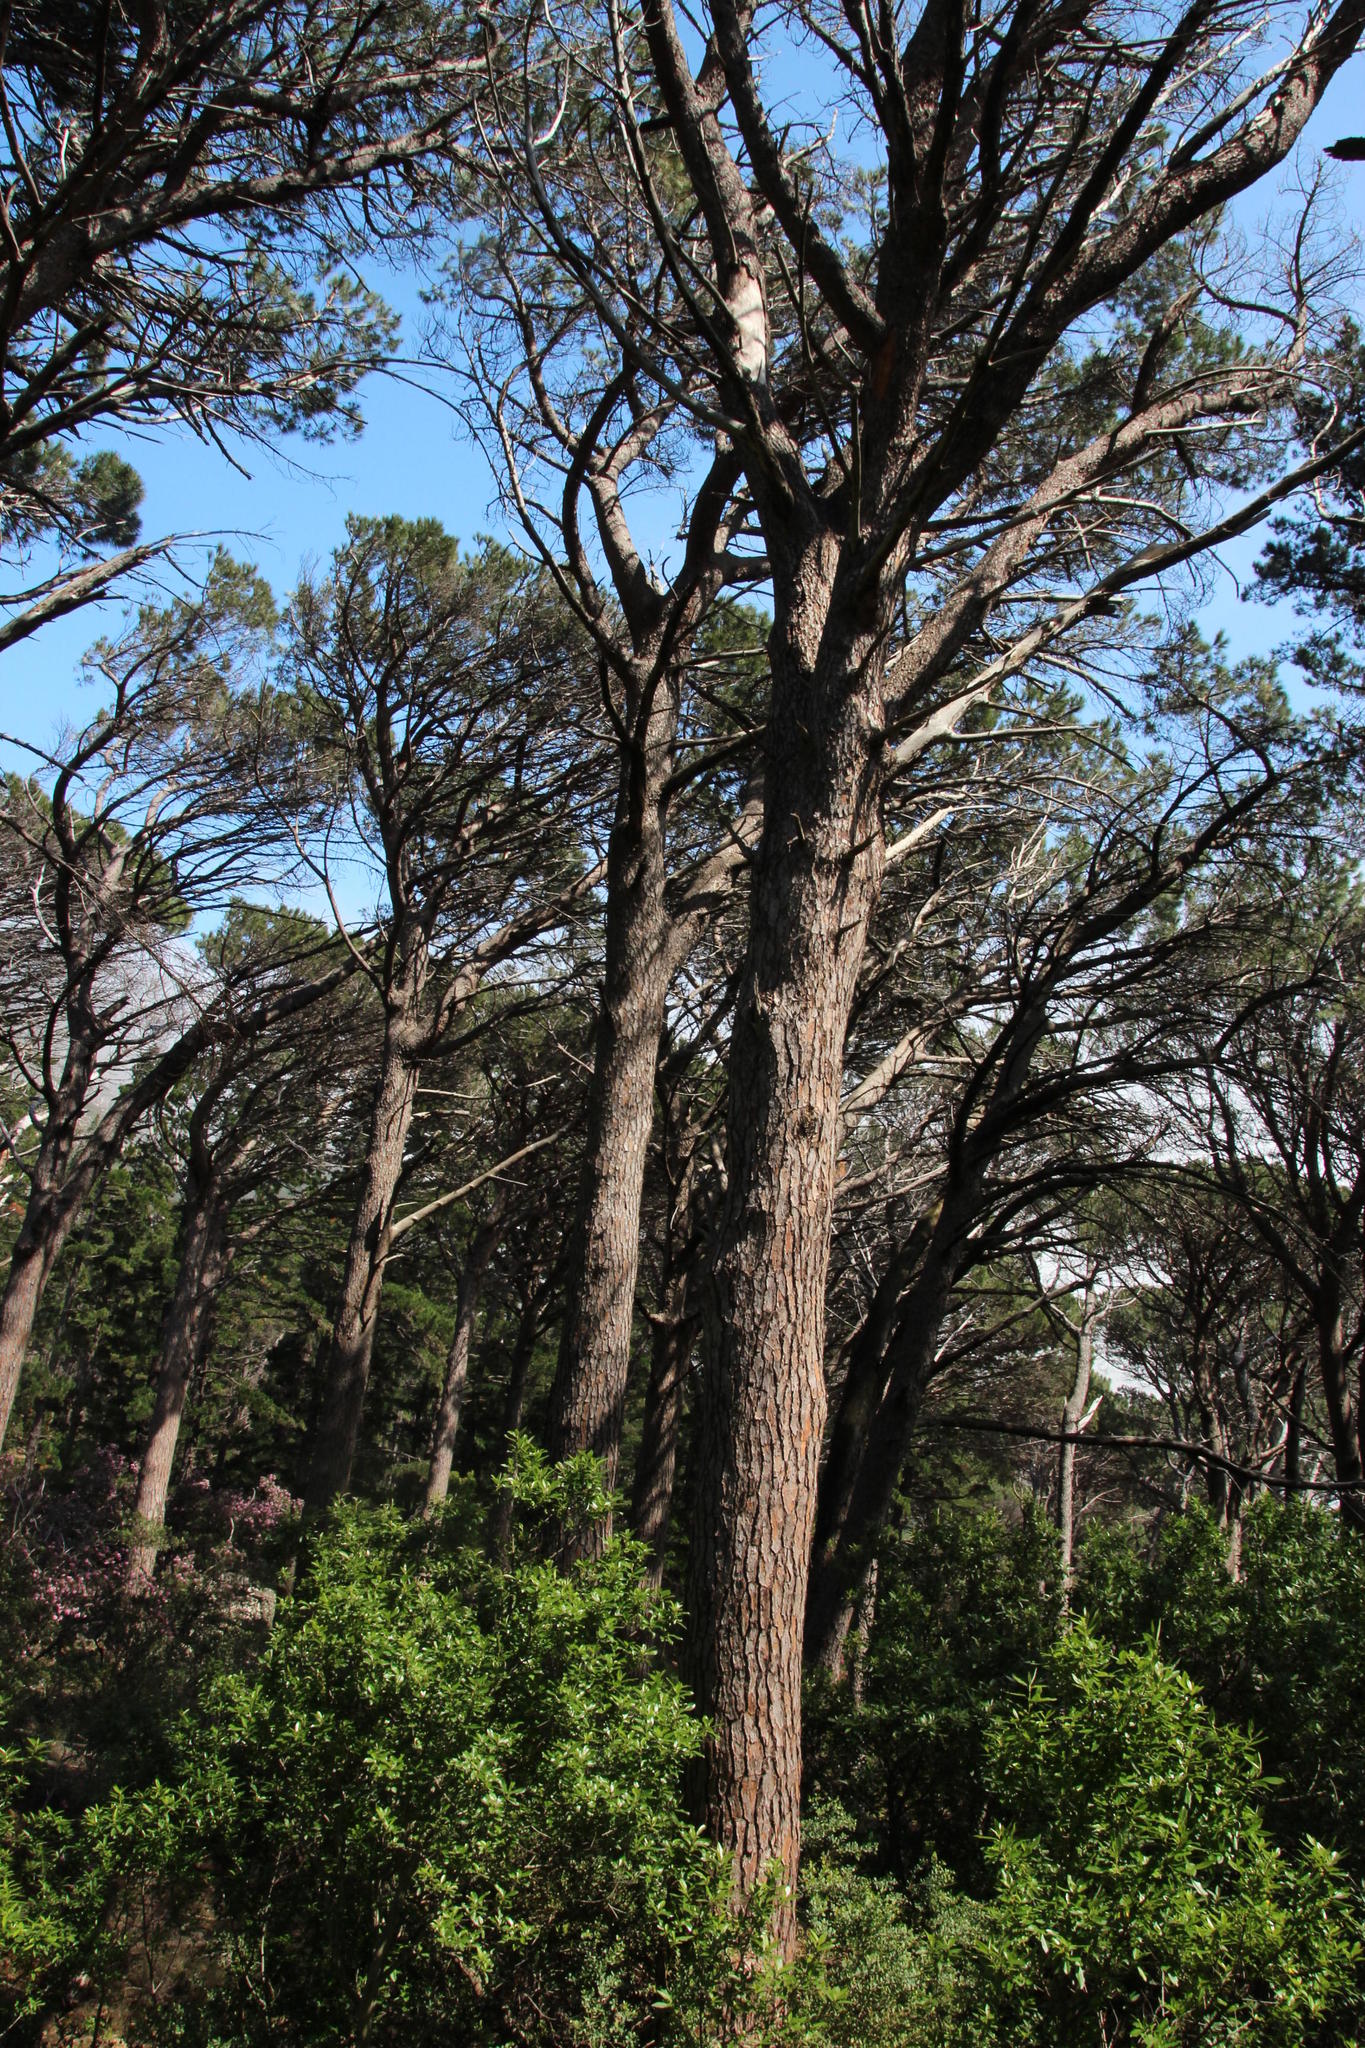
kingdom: Plantae
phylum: Tracheophyta
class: Pinopsida
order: Pinales
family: Pinaceae
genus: Pinus
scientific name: Pinus pinea
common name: Italian stone pine
